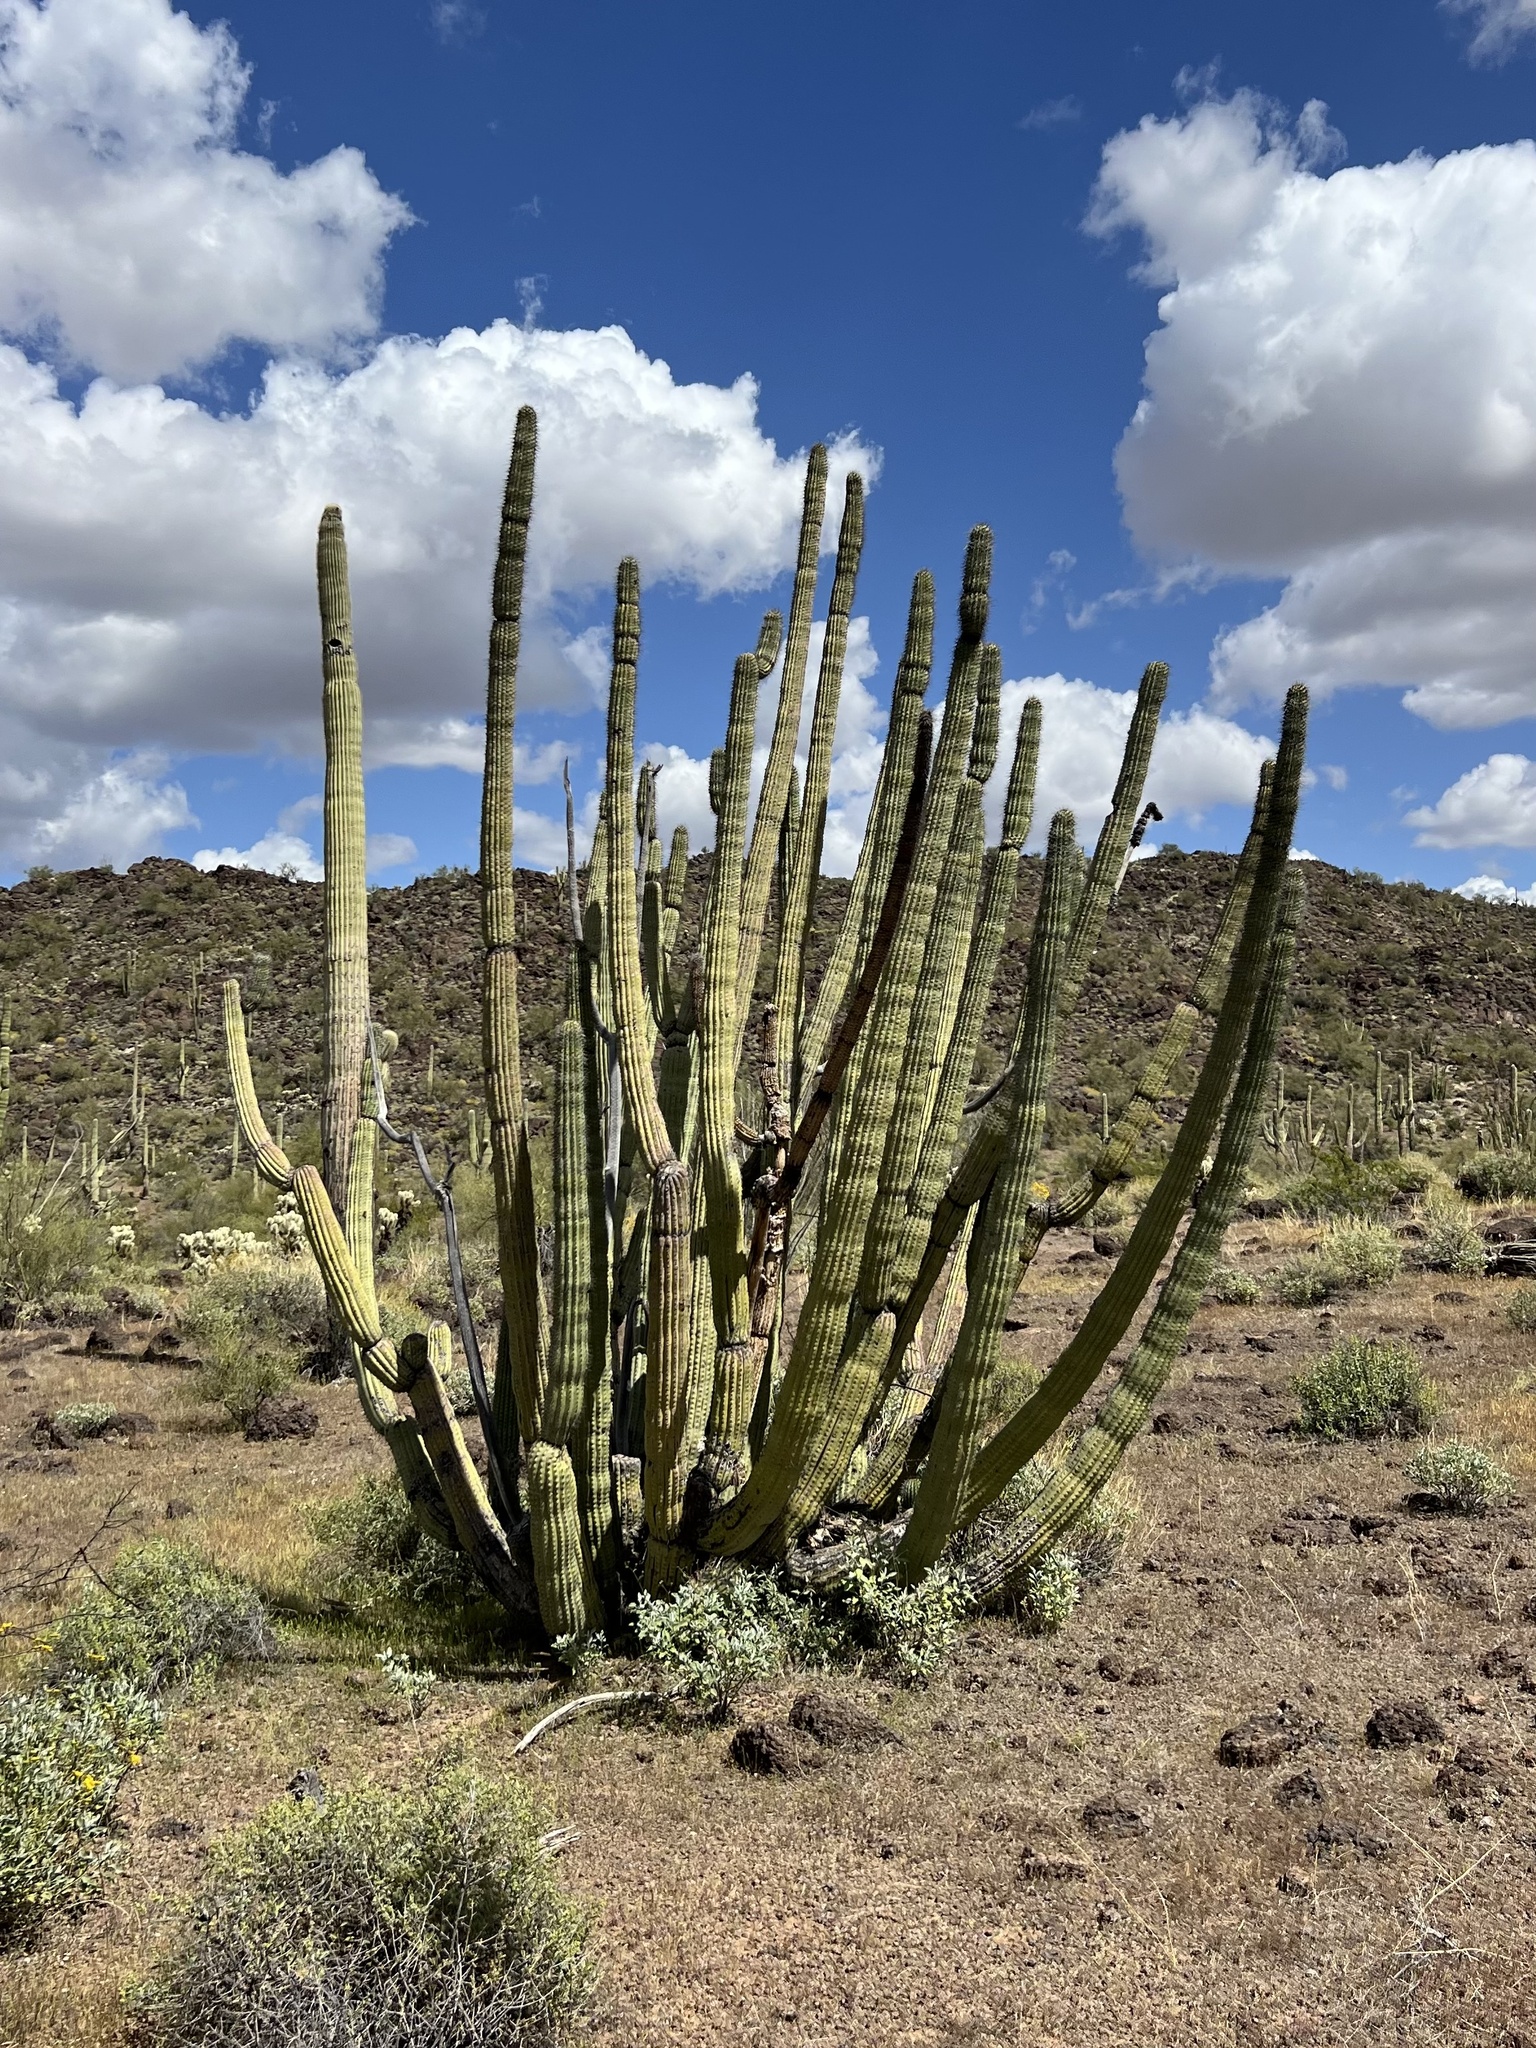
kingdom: Plantae
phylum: Tracheophyta
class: Magnoliopsida
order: Caryophyllales
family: Cactaceae
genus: Stenocereus
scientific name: Stenocereus thurberi
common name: Organ pipe cactus
